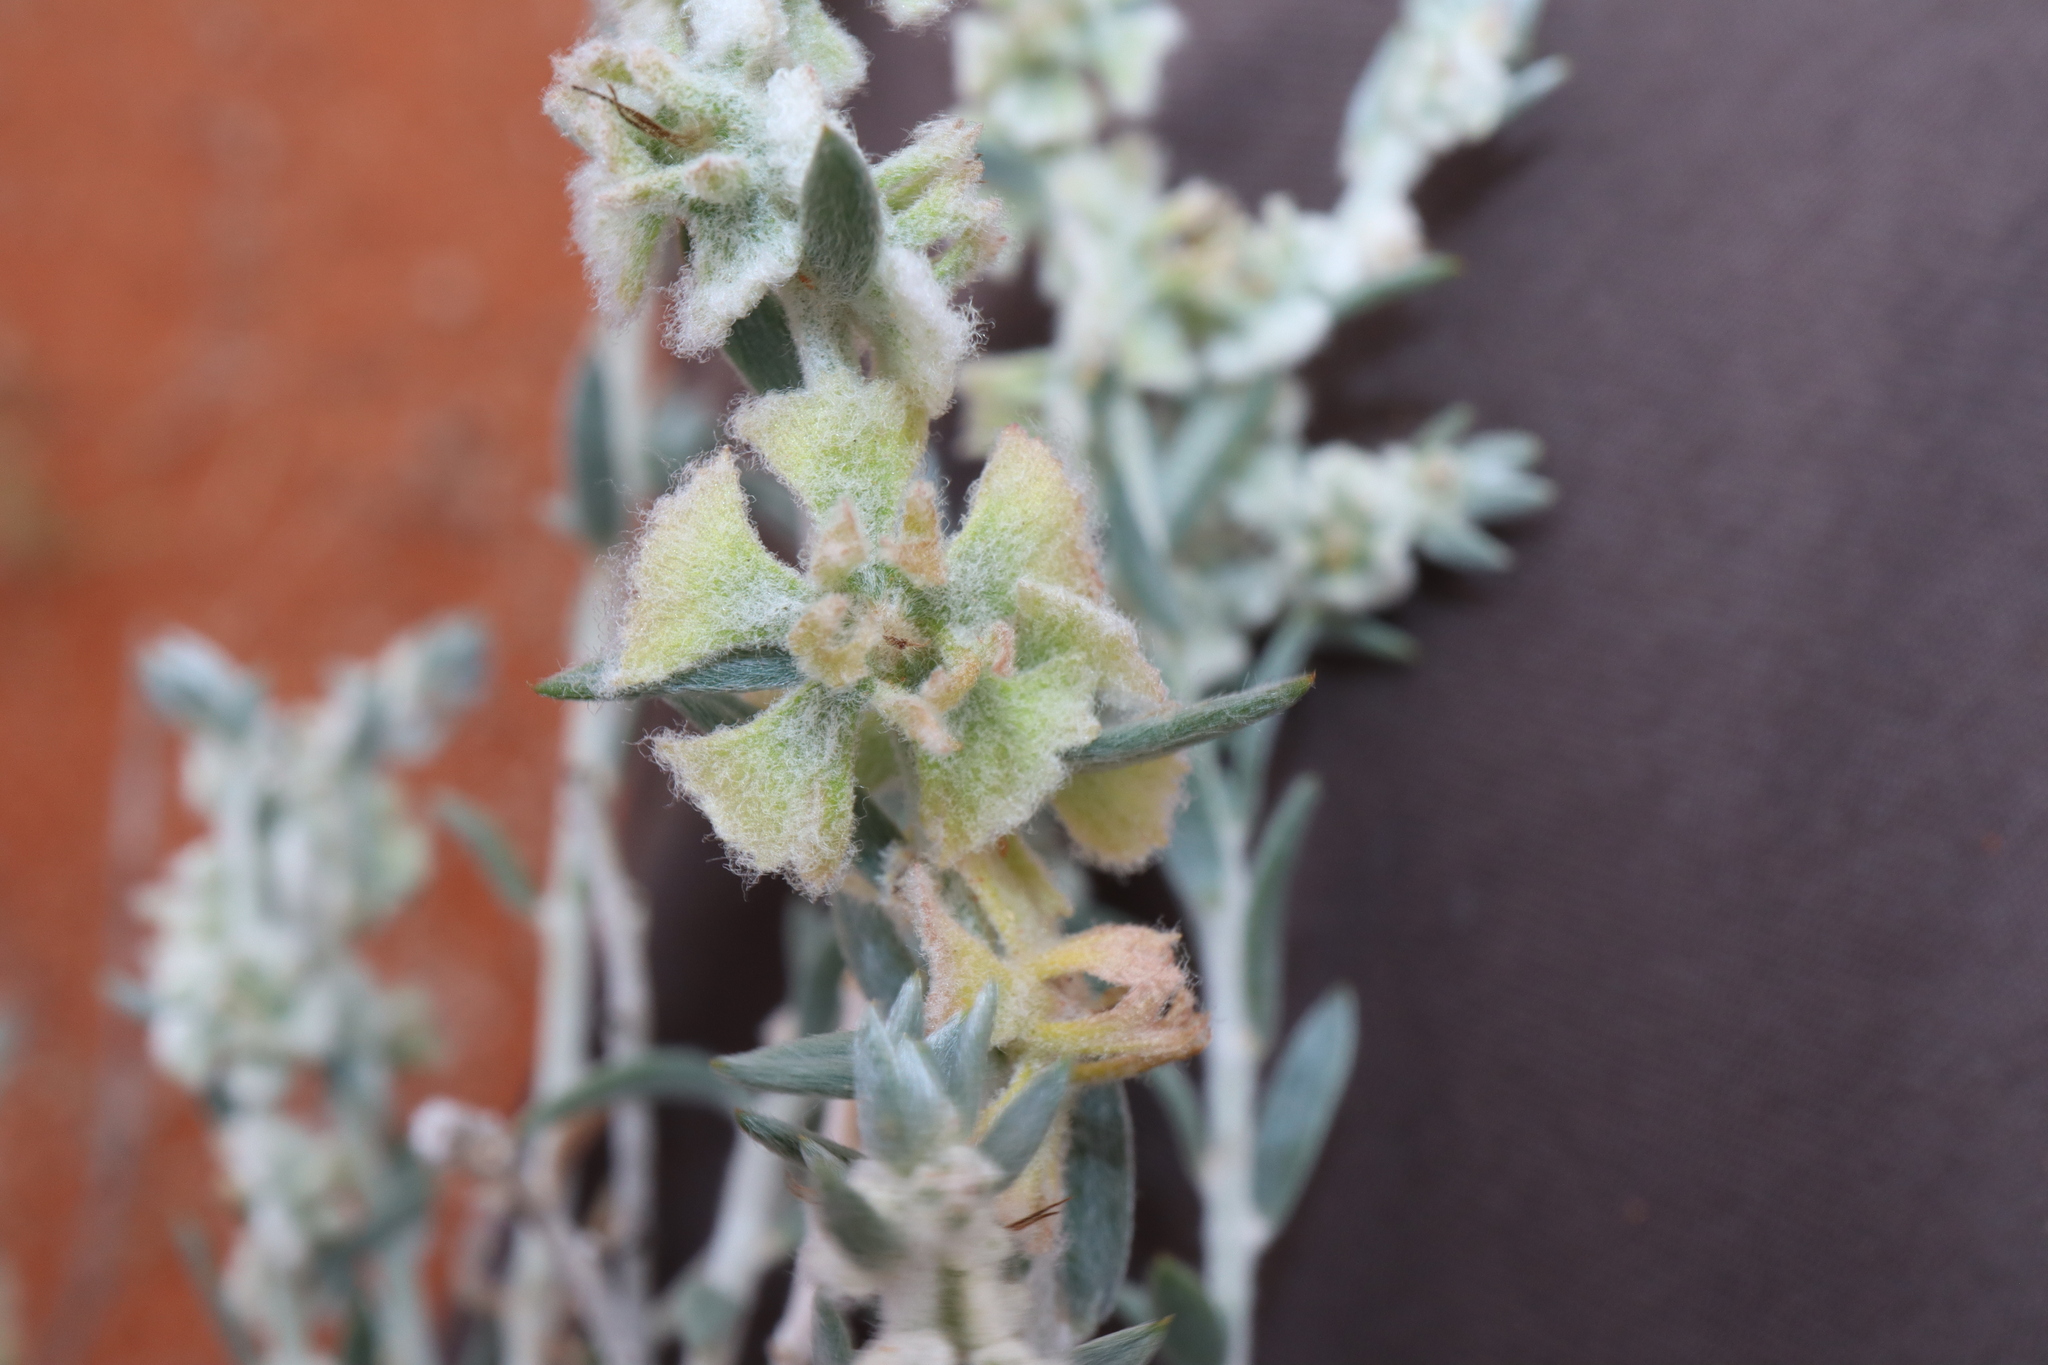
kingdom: Plantae
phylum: Tracheophyta
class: Magnoliopsida
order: Caryophyllales
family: Amaranthaceae
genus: Maireana
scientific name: Maireana lobiflora
